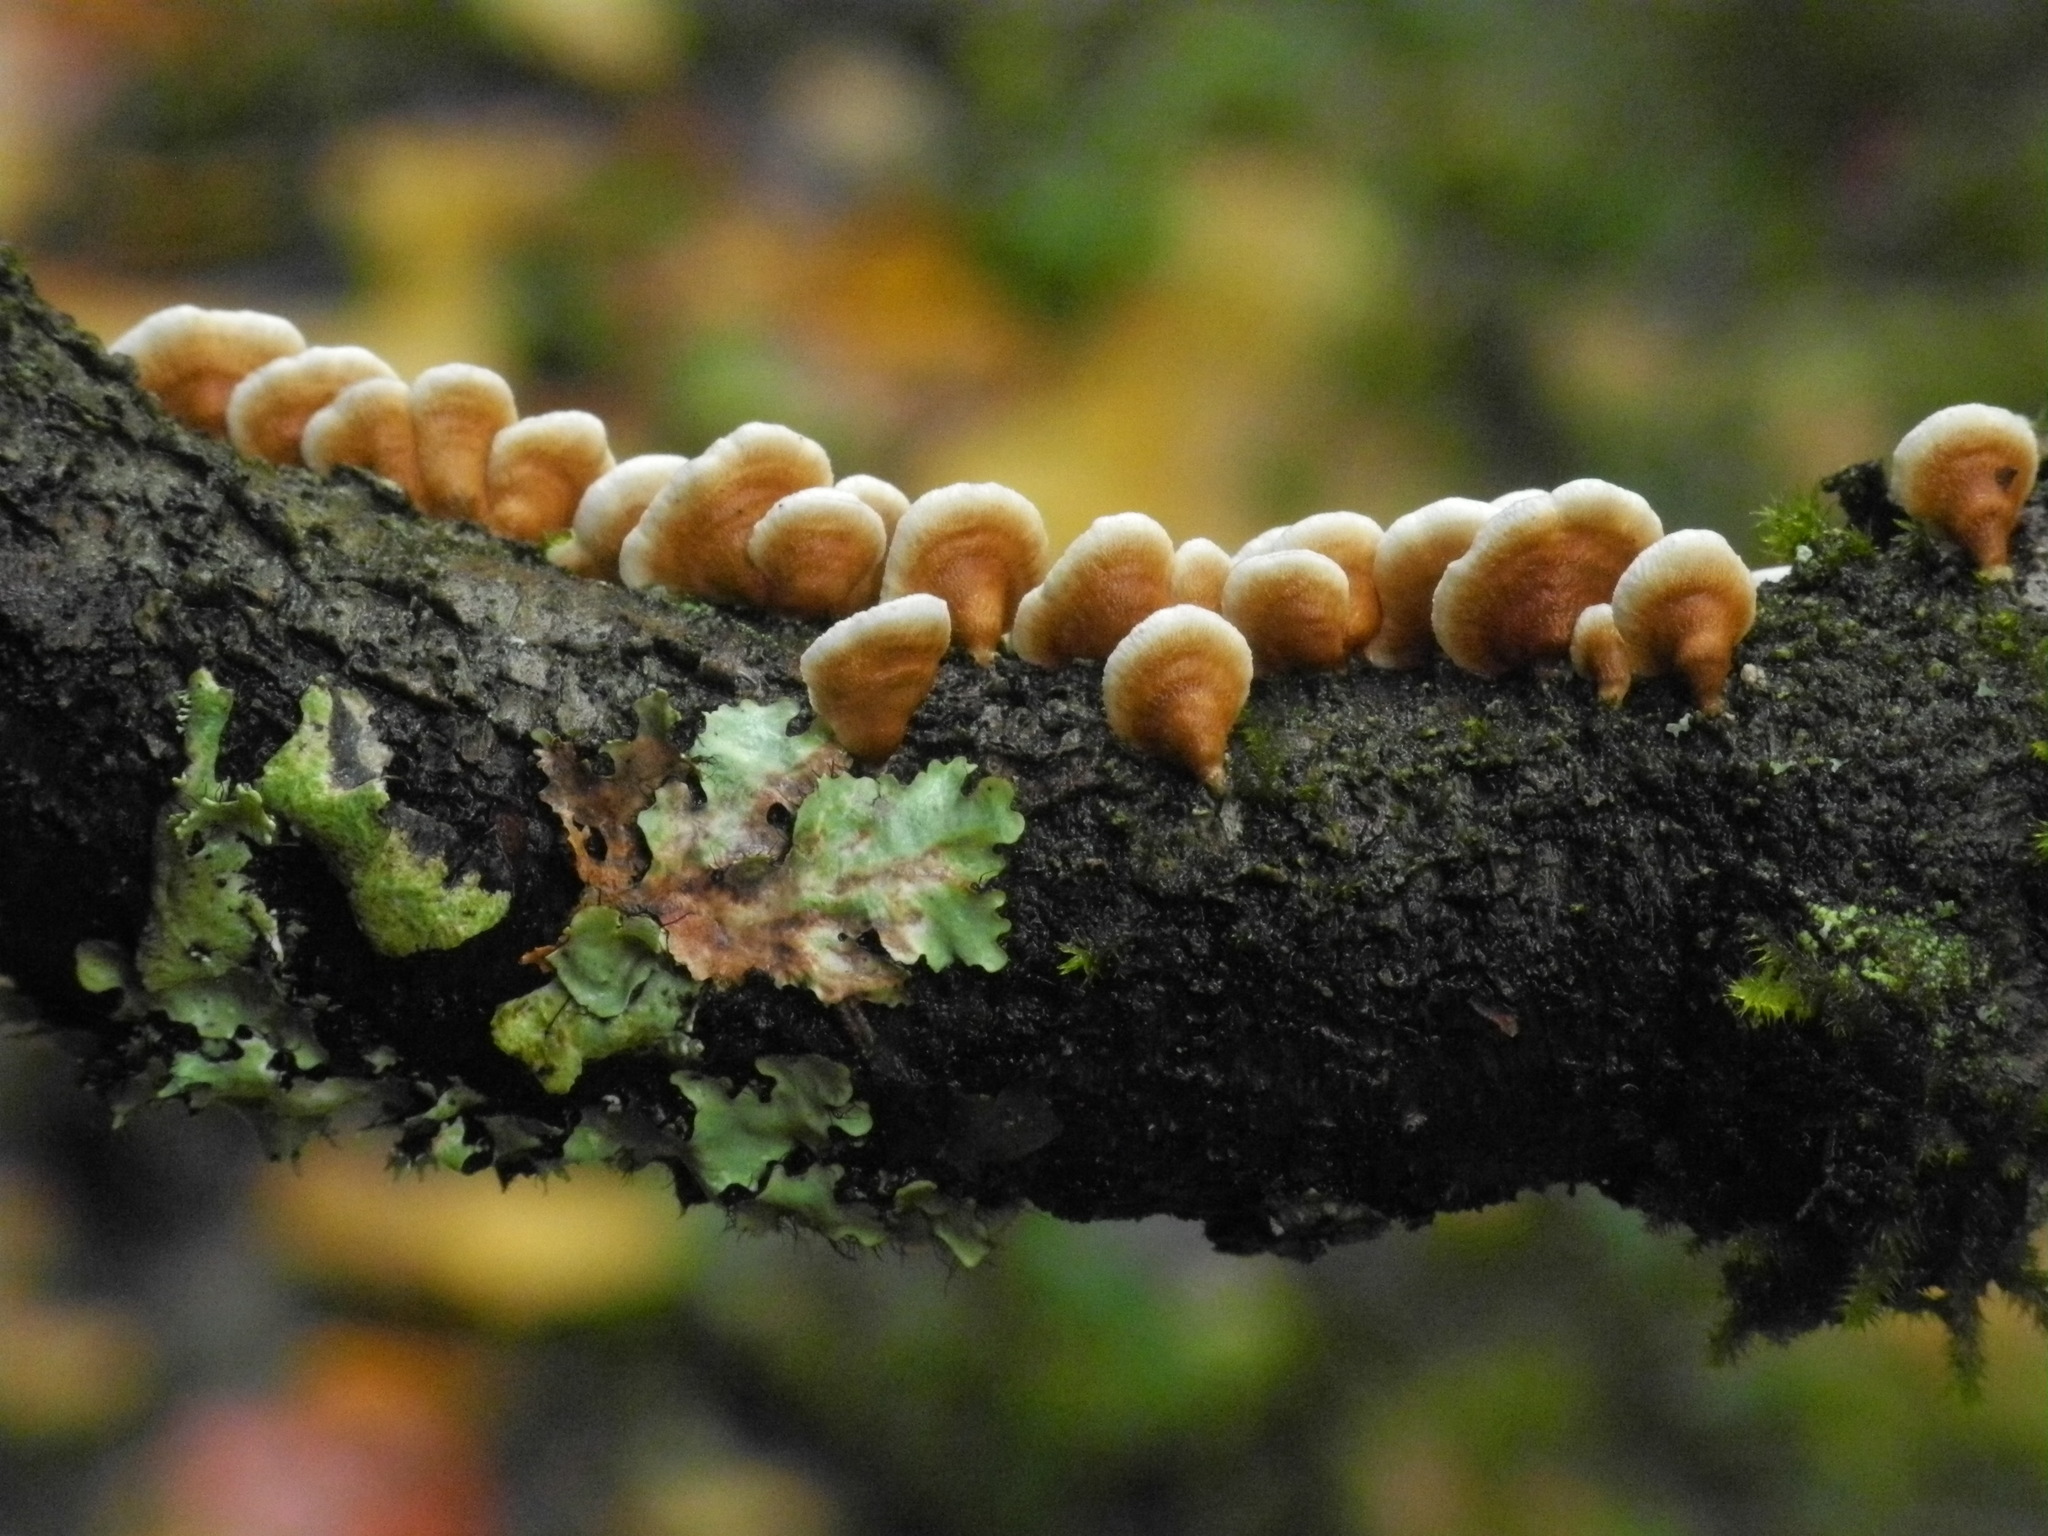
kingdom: Fungi
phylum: Basidiomycota
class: Agaricomycetes
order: Amylocorticiales
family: Amylocorticiaceae
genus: Plicaturopsis
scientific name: Plicaturopsis crispa
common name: Crimped gill
